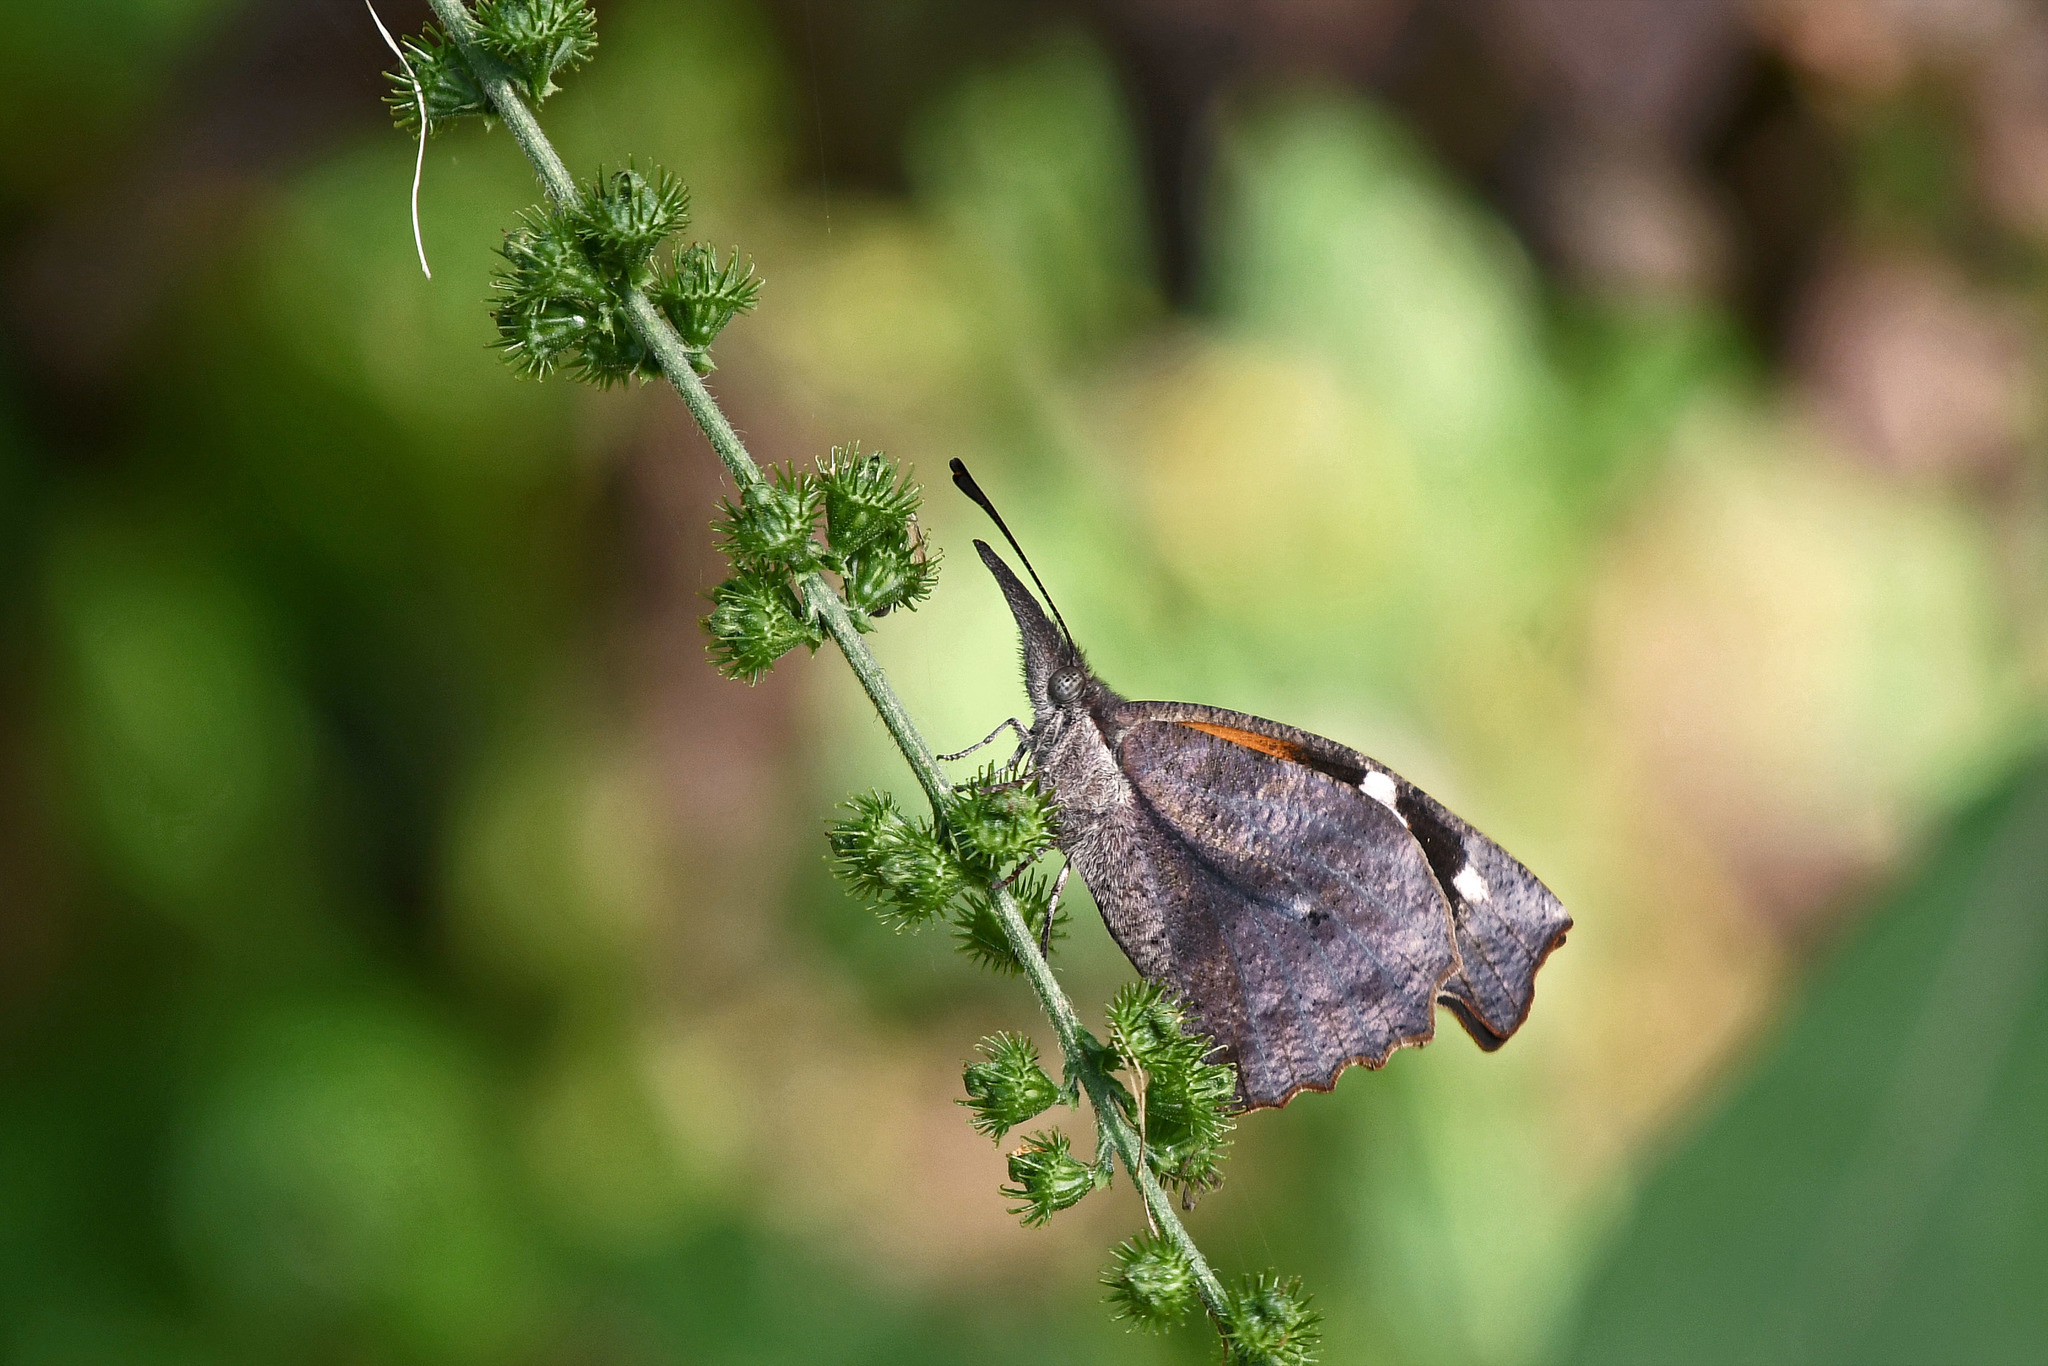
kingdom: Animalia
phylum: Arthropoda
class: Insecta
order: Lepidoptera
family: Nymphalidae
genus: Libytheana
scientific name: Libytheana carinenta
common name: American snout
